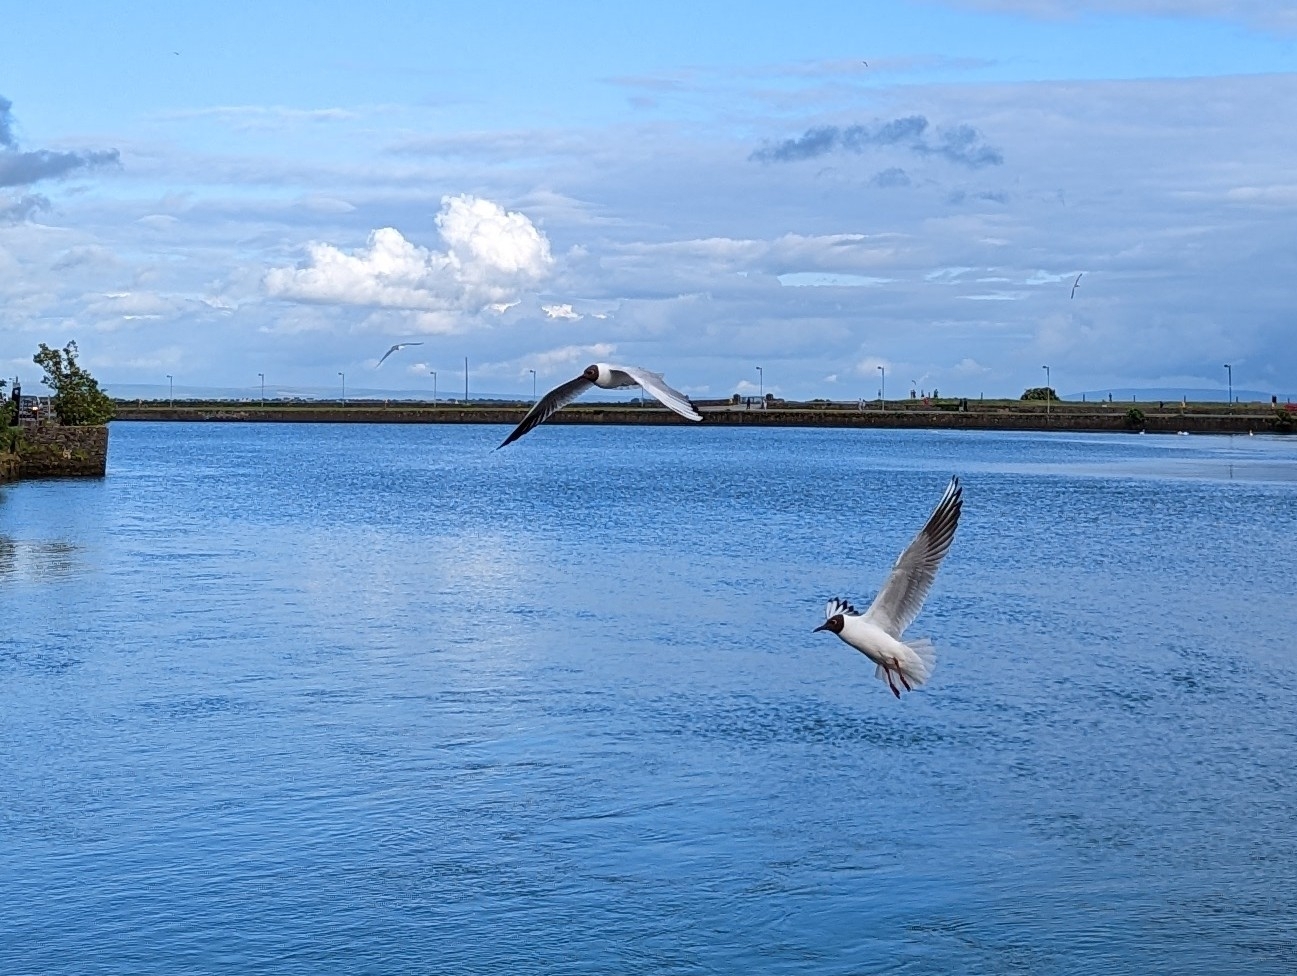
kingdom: Animalia
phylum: Chordata
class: Aves
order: Charadriiformes
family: Laridae
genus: Chroicocephalus
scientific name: Chroicocephalus ridibundus
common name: Black-headed gull
